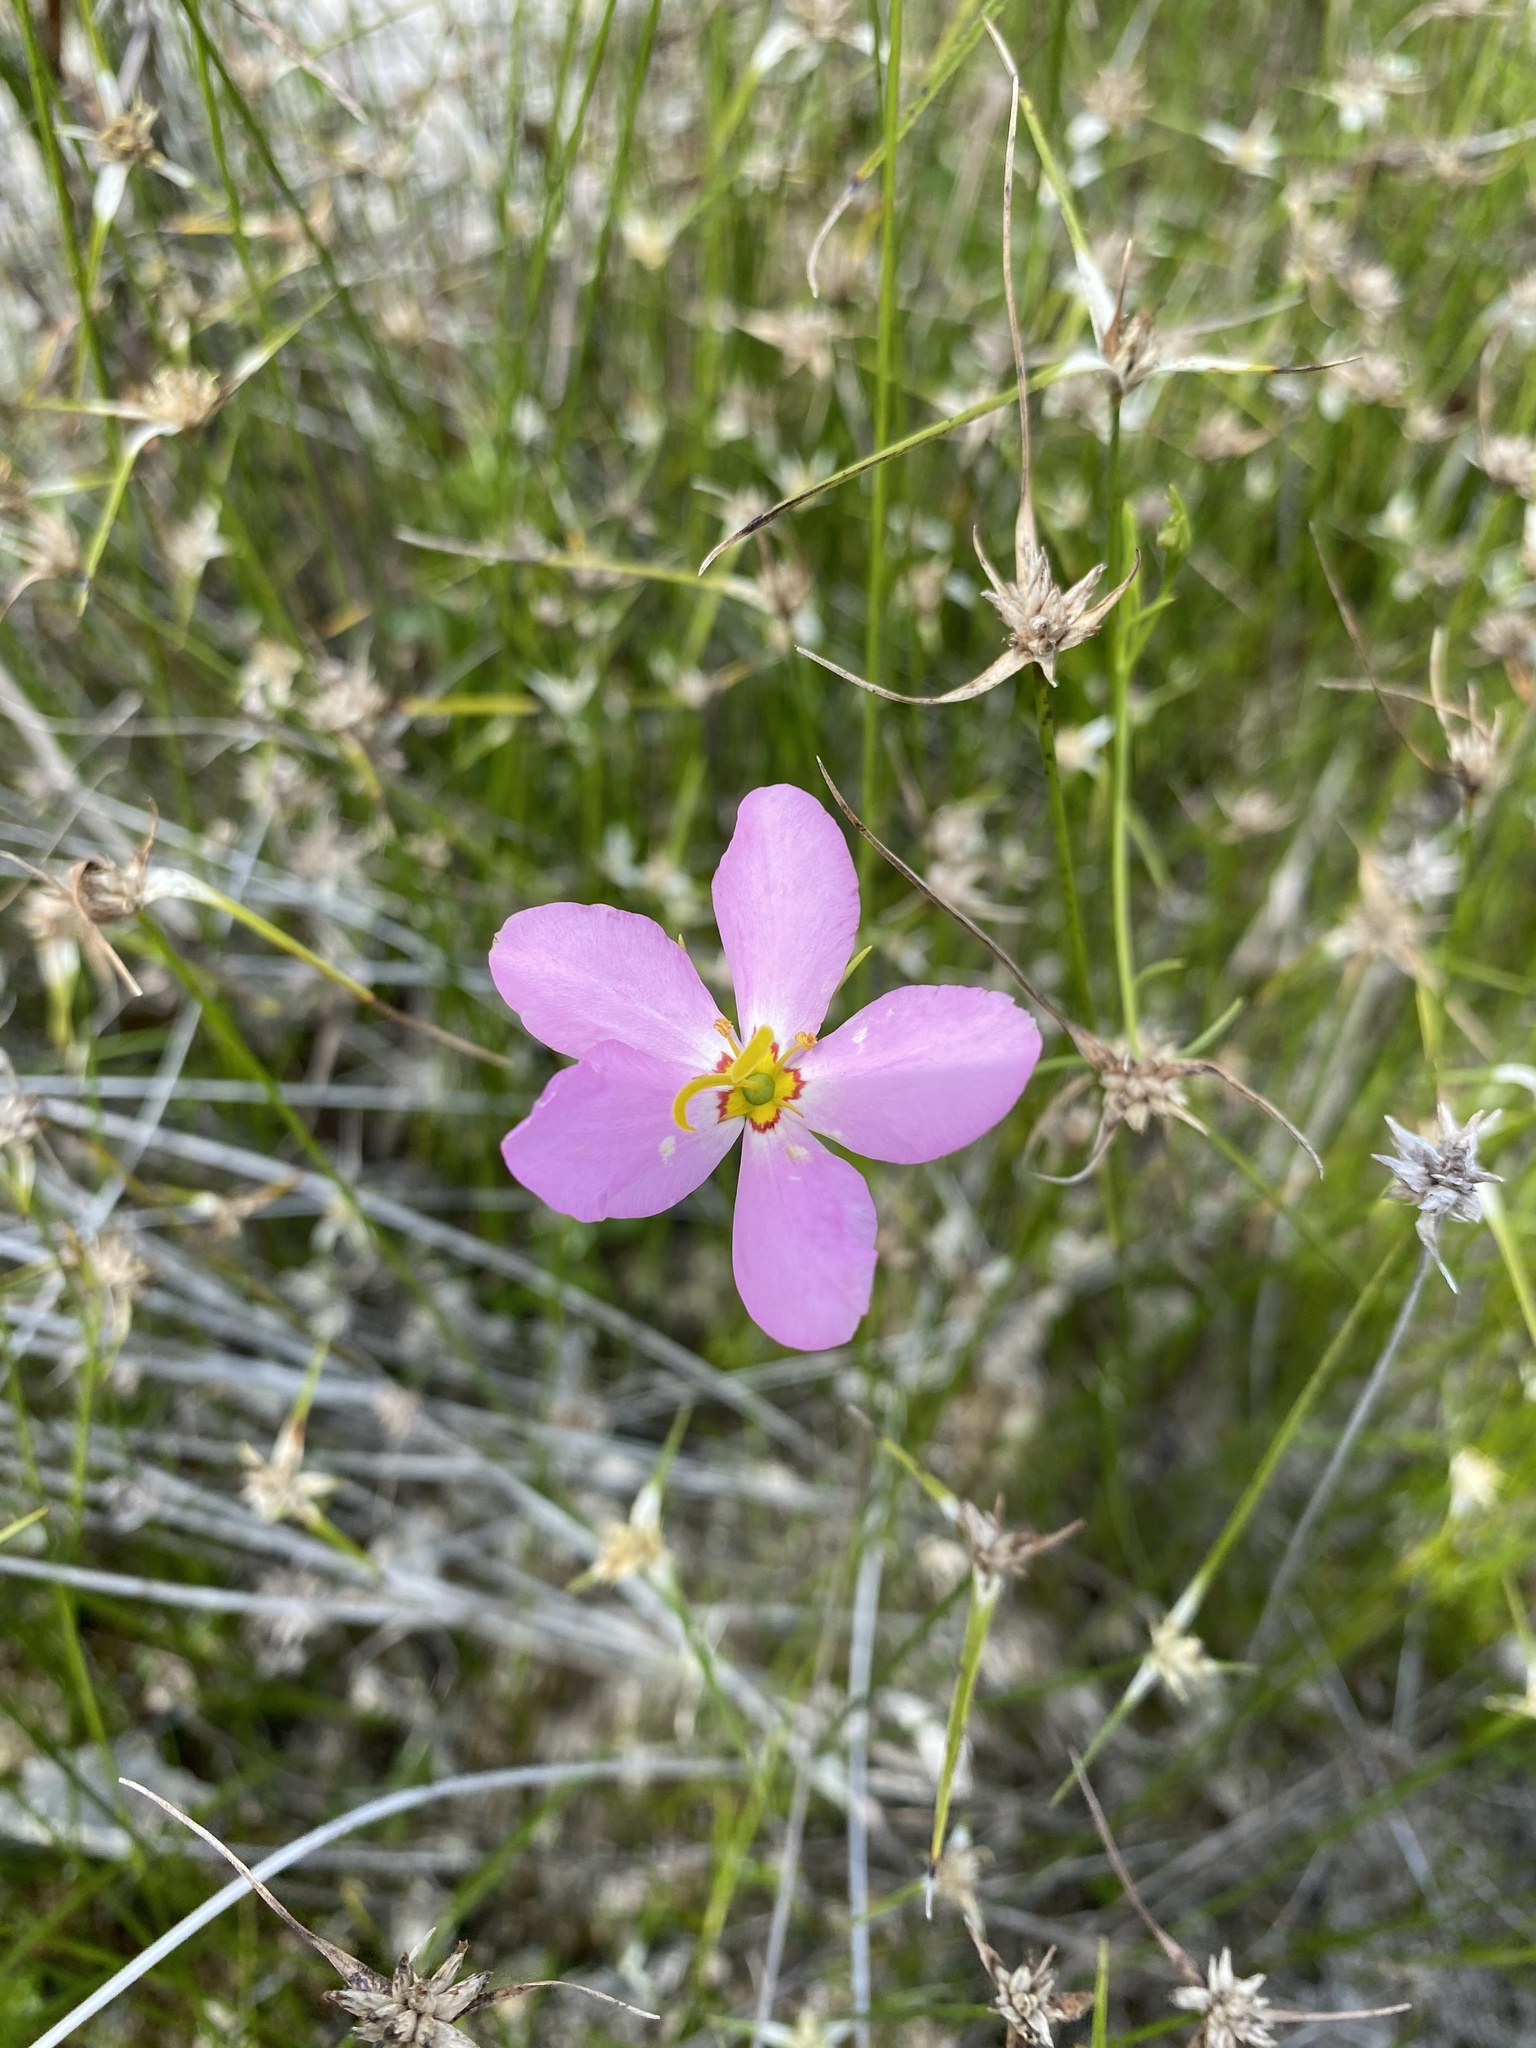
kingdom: Plantae
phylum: Tracheophyta
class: Magnoliopsida
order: Gentianales
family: Gentianaceae
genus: Sabatia
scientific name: Sabatia stellaris
